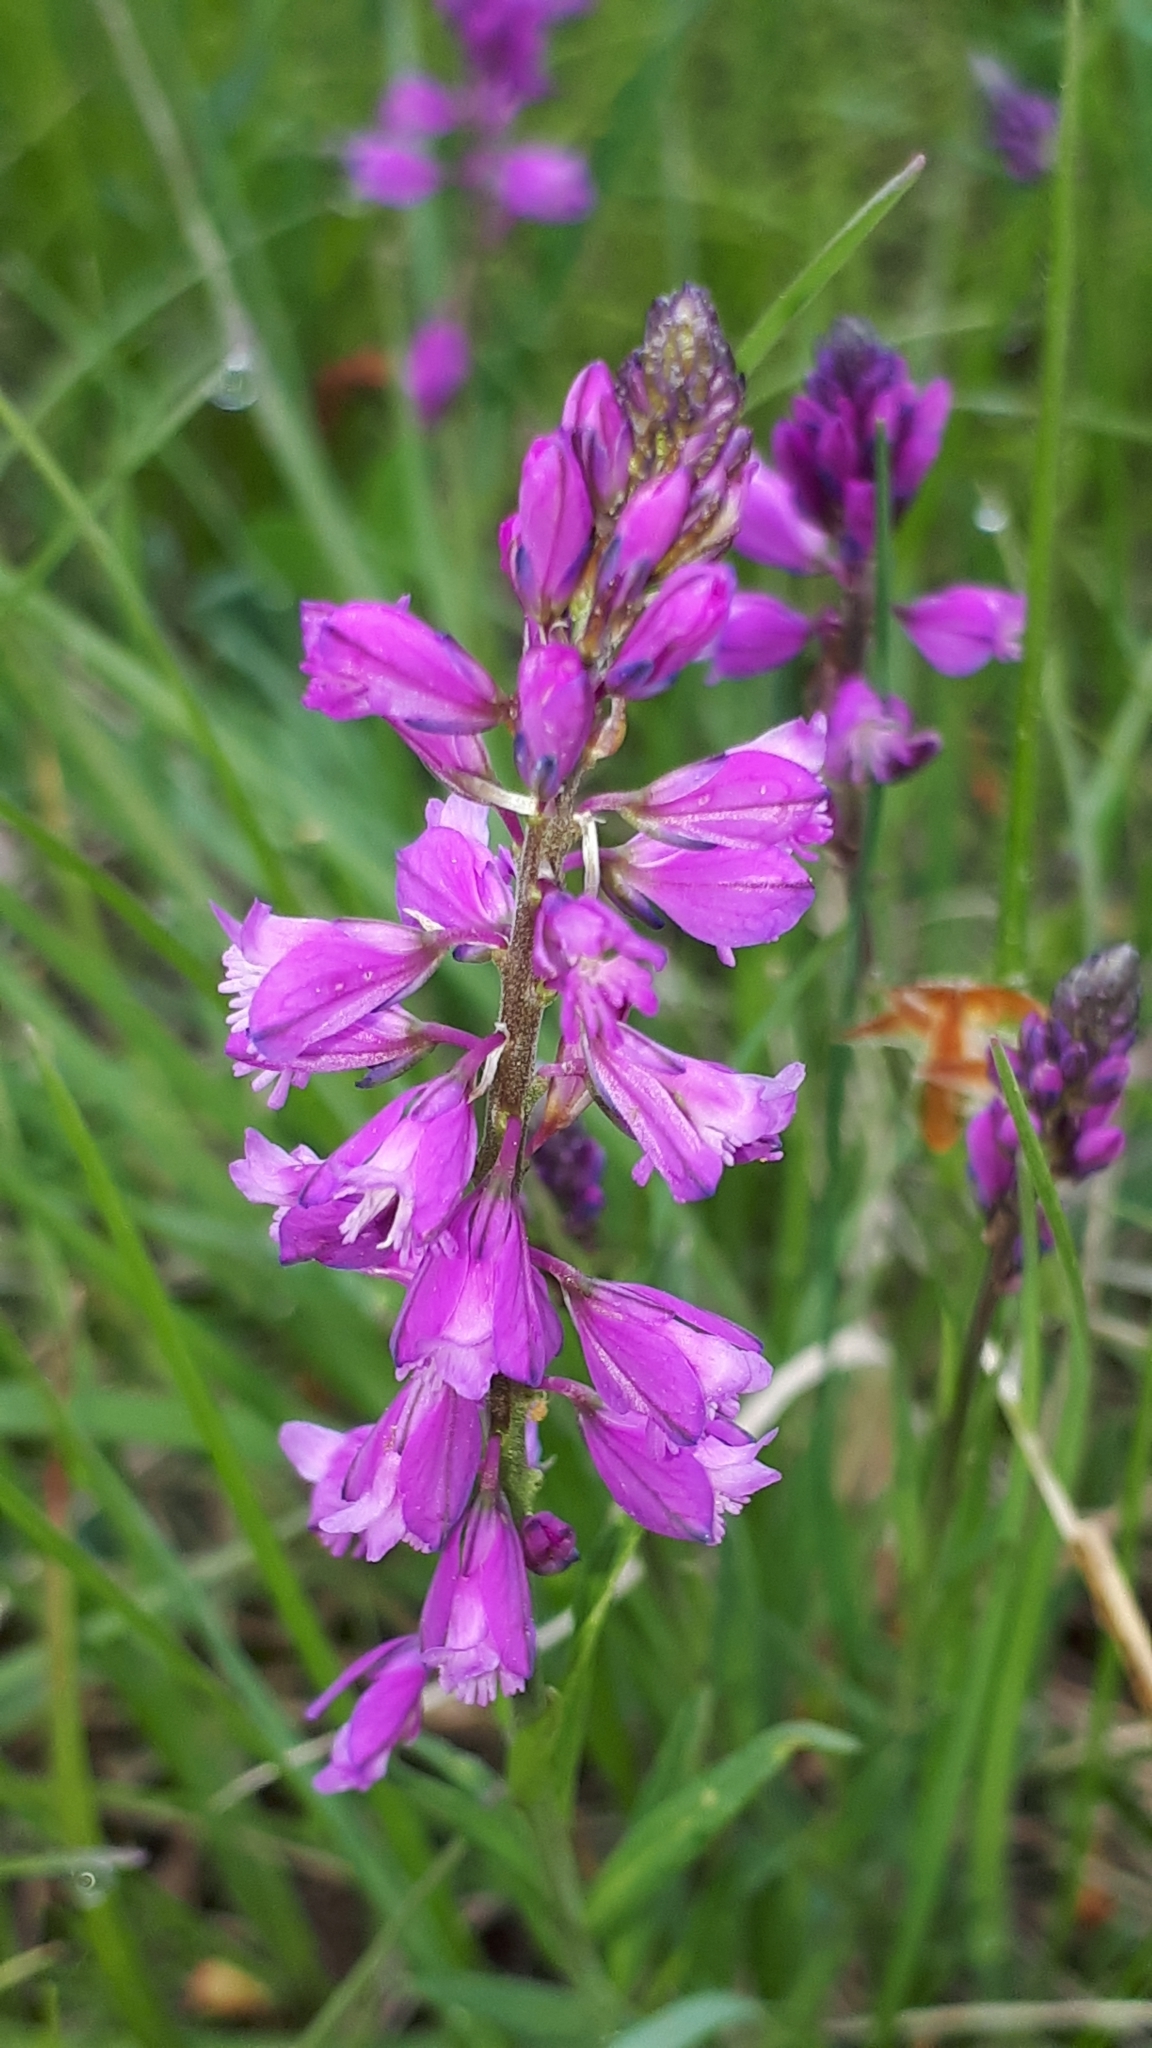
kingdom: Plantae
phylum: Tracheophyta
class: Magnoliopsida
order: Fabales
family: Polygalaceae
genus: Polygala
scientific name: Polygala comosa
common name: Tufted milkwort
